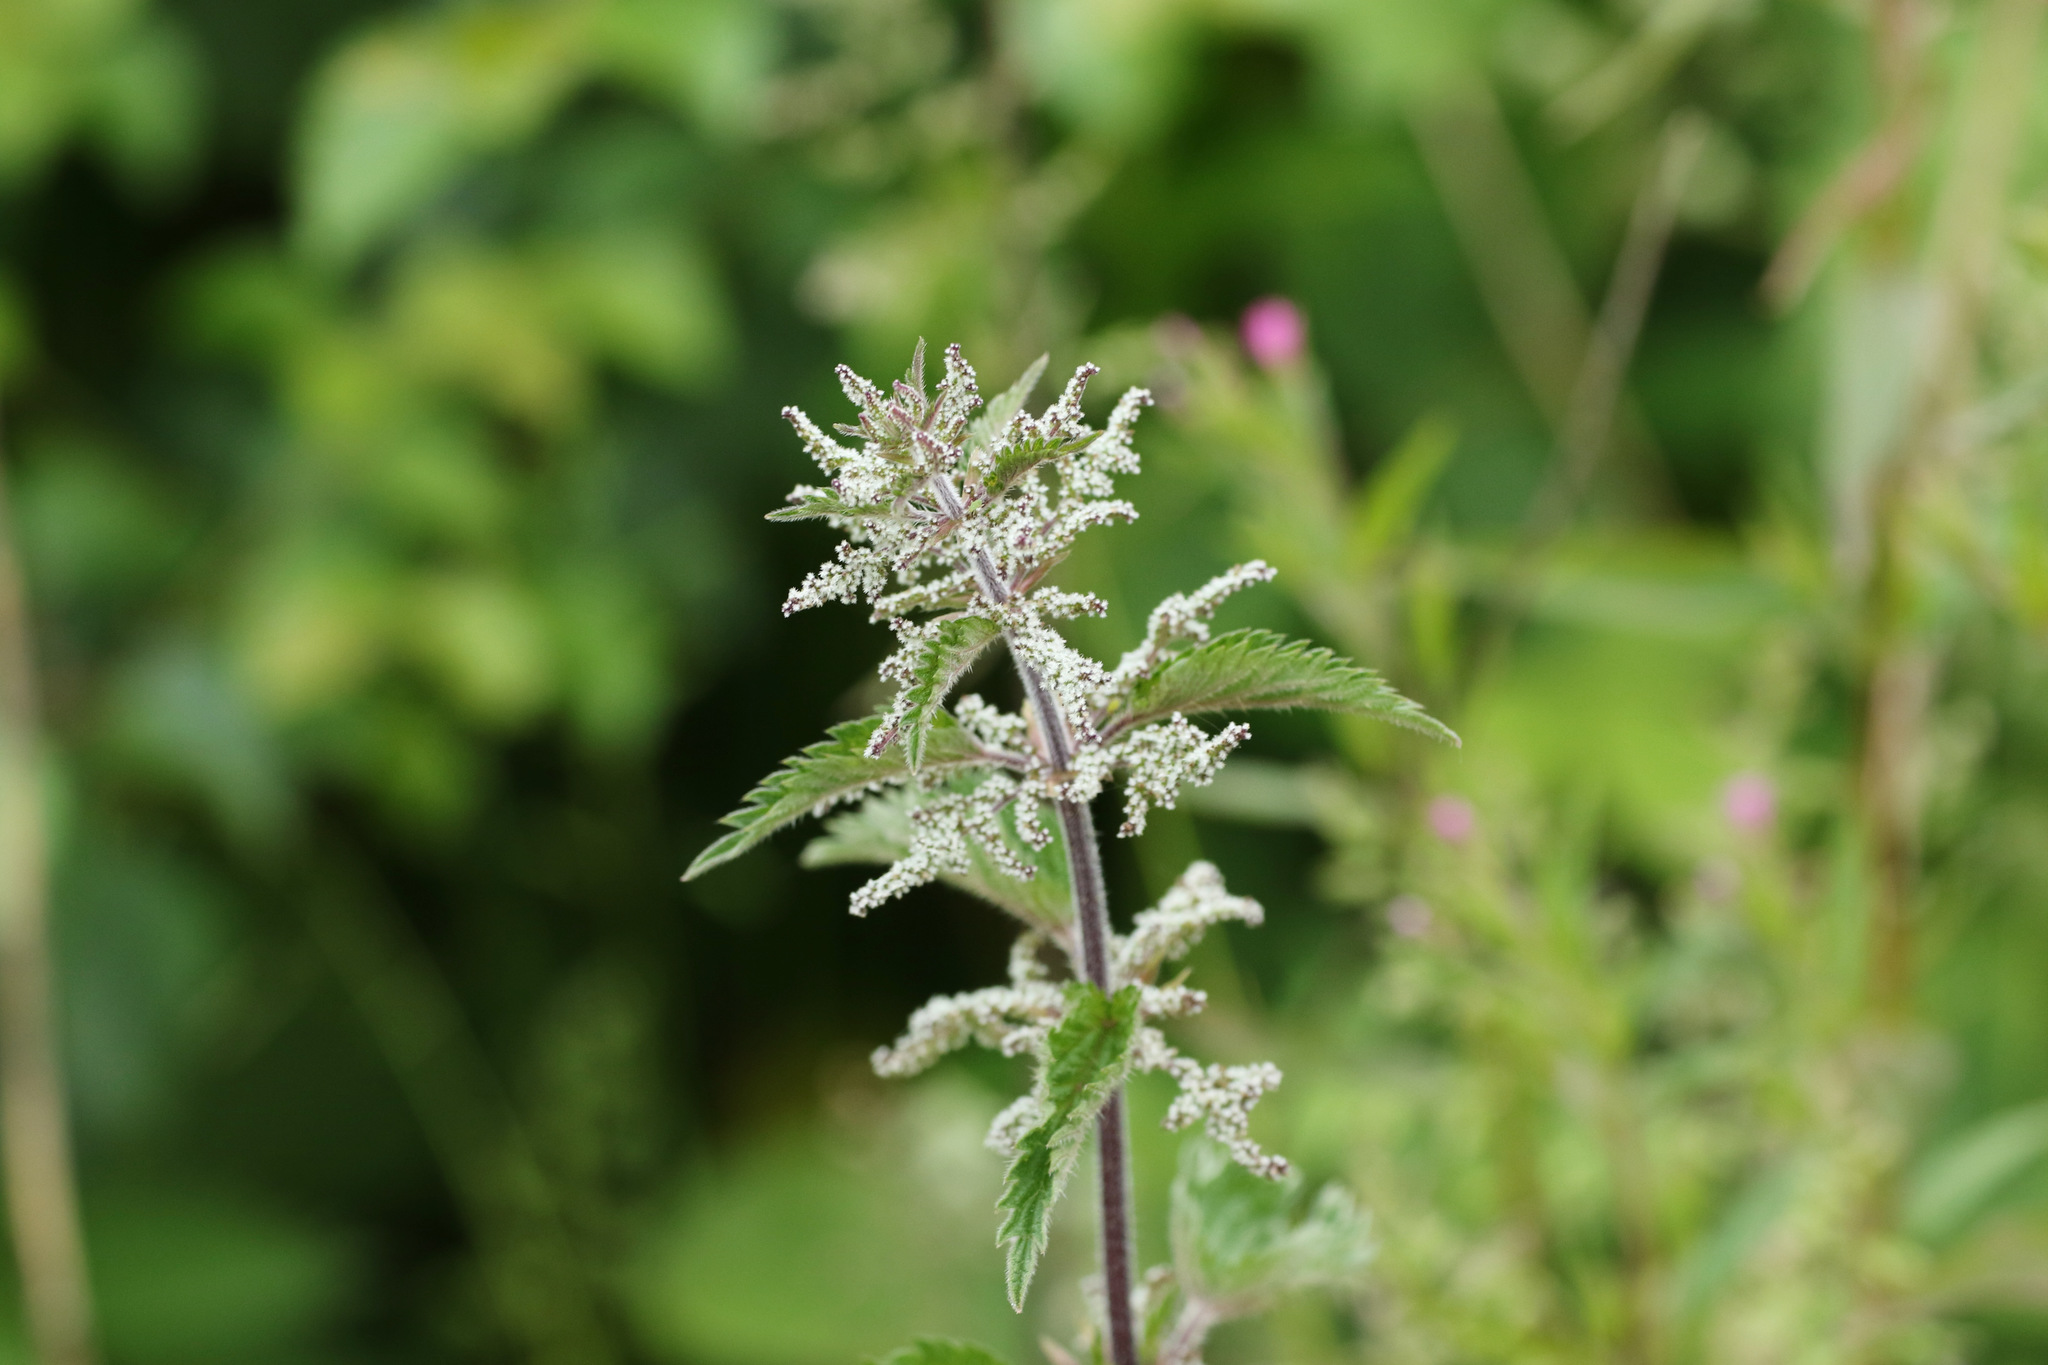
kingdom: Plantae
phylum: Tracheophyta
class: Magnoliopsida
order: Rosales
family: Urticaceae
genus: Urtica
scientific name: Urtica dioica
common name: Common nettle
